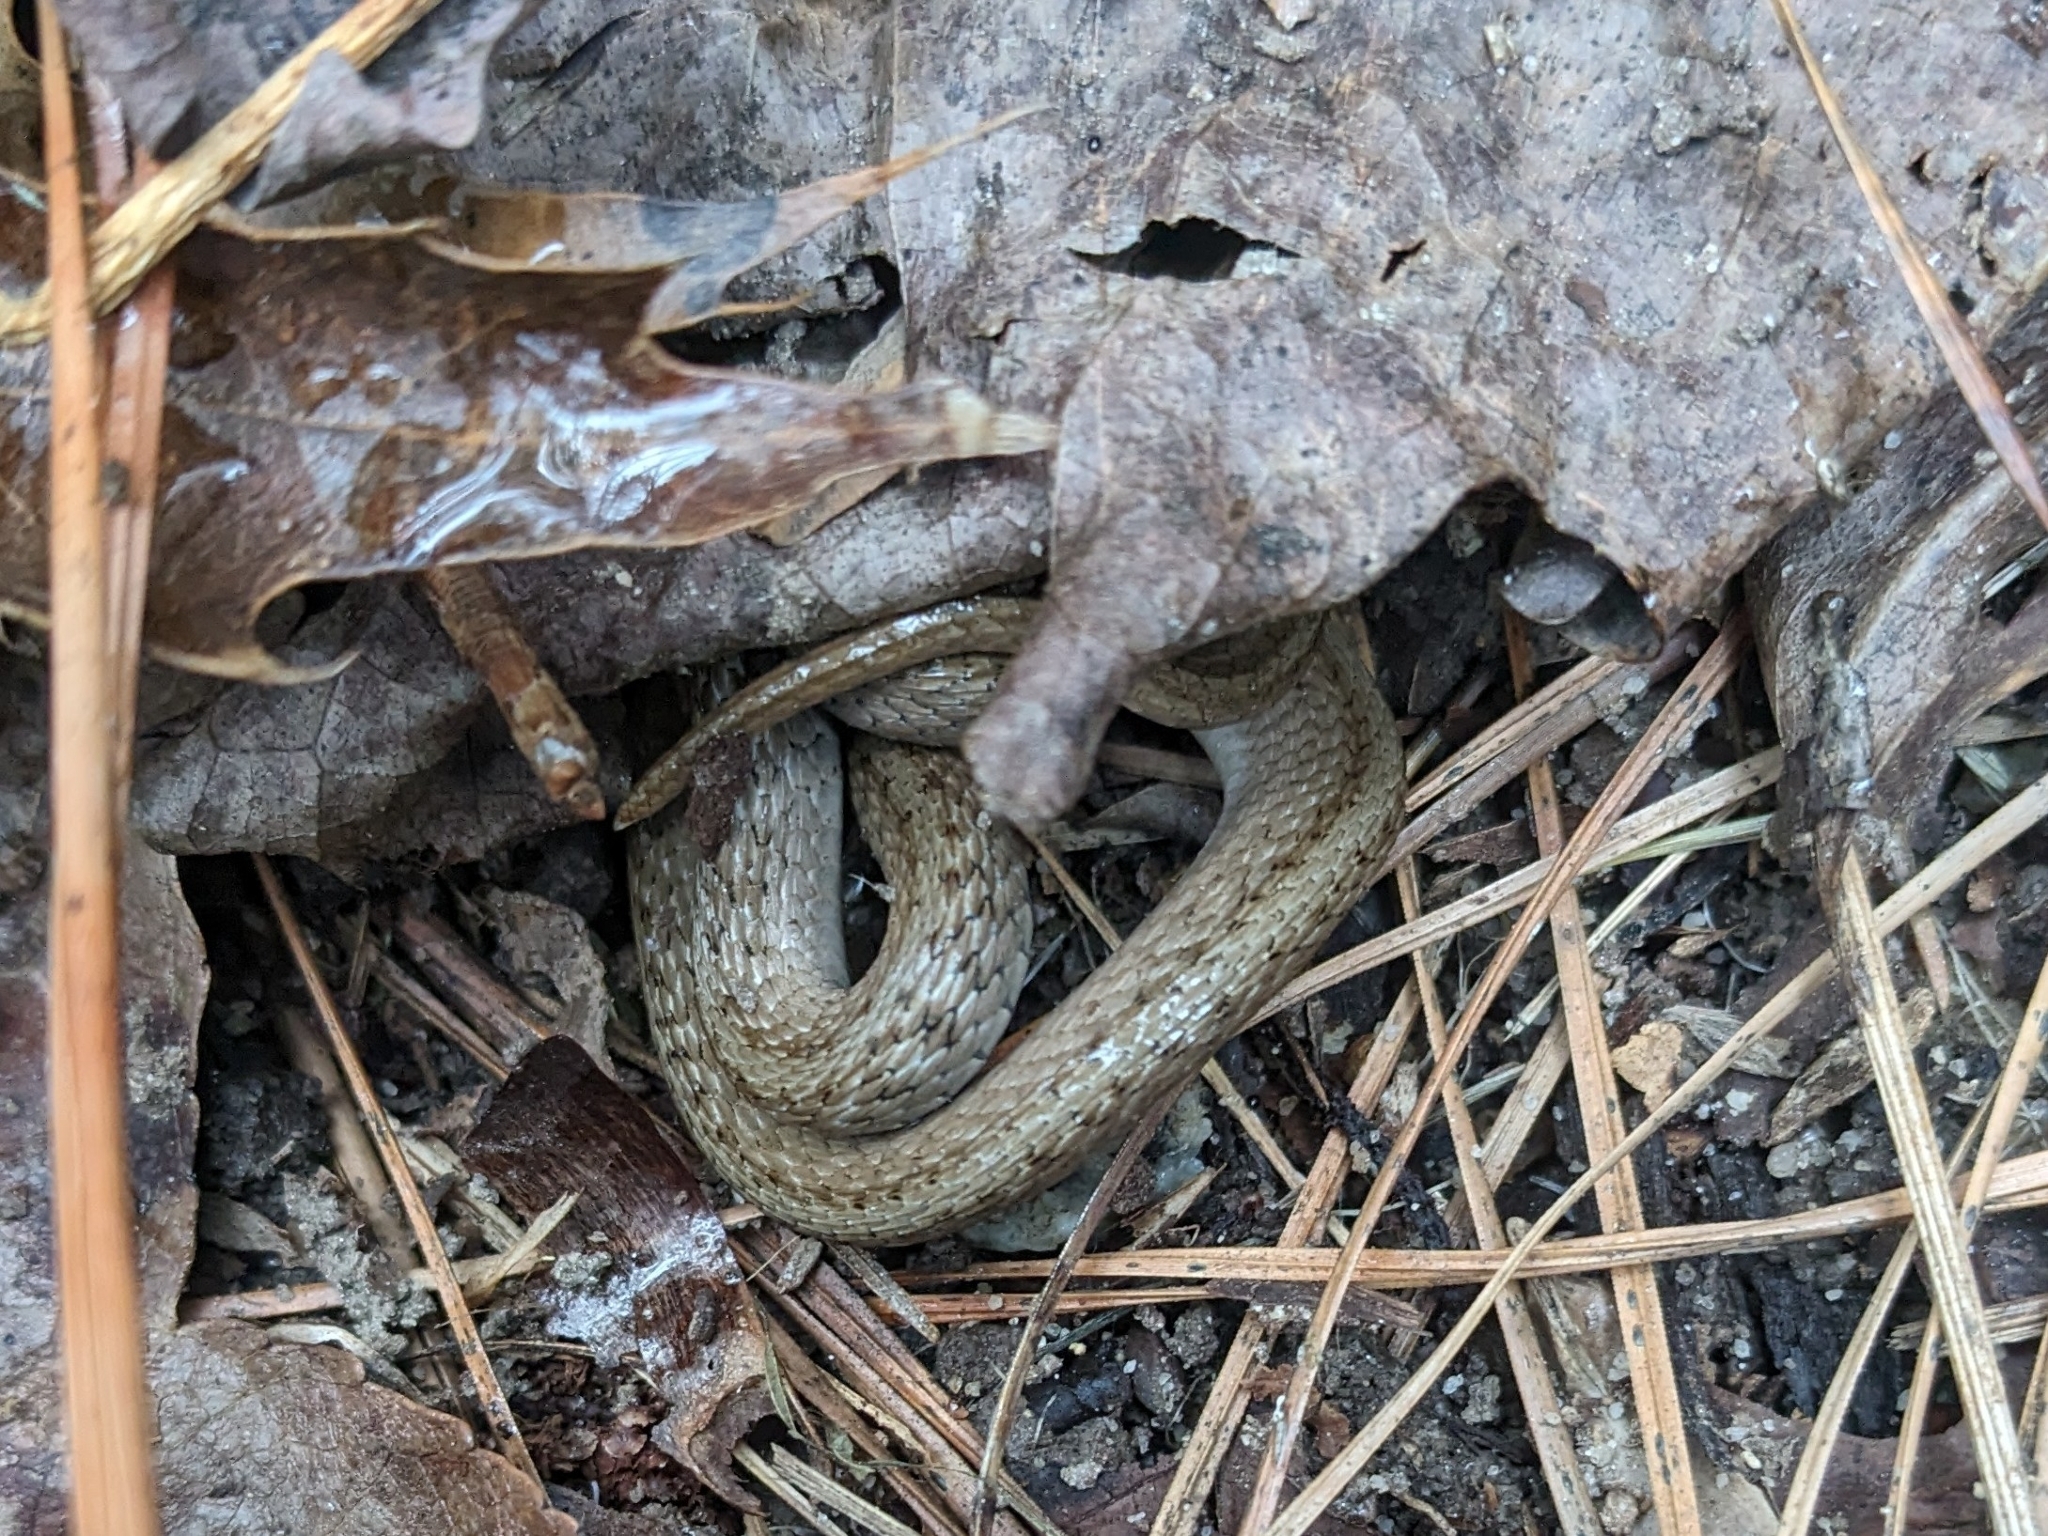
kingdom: Animalia
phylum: Chordata
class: Squamata
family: Colubridae
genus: Storeria
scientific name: Storeria dekayi
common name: (dekay’s) brown snake
